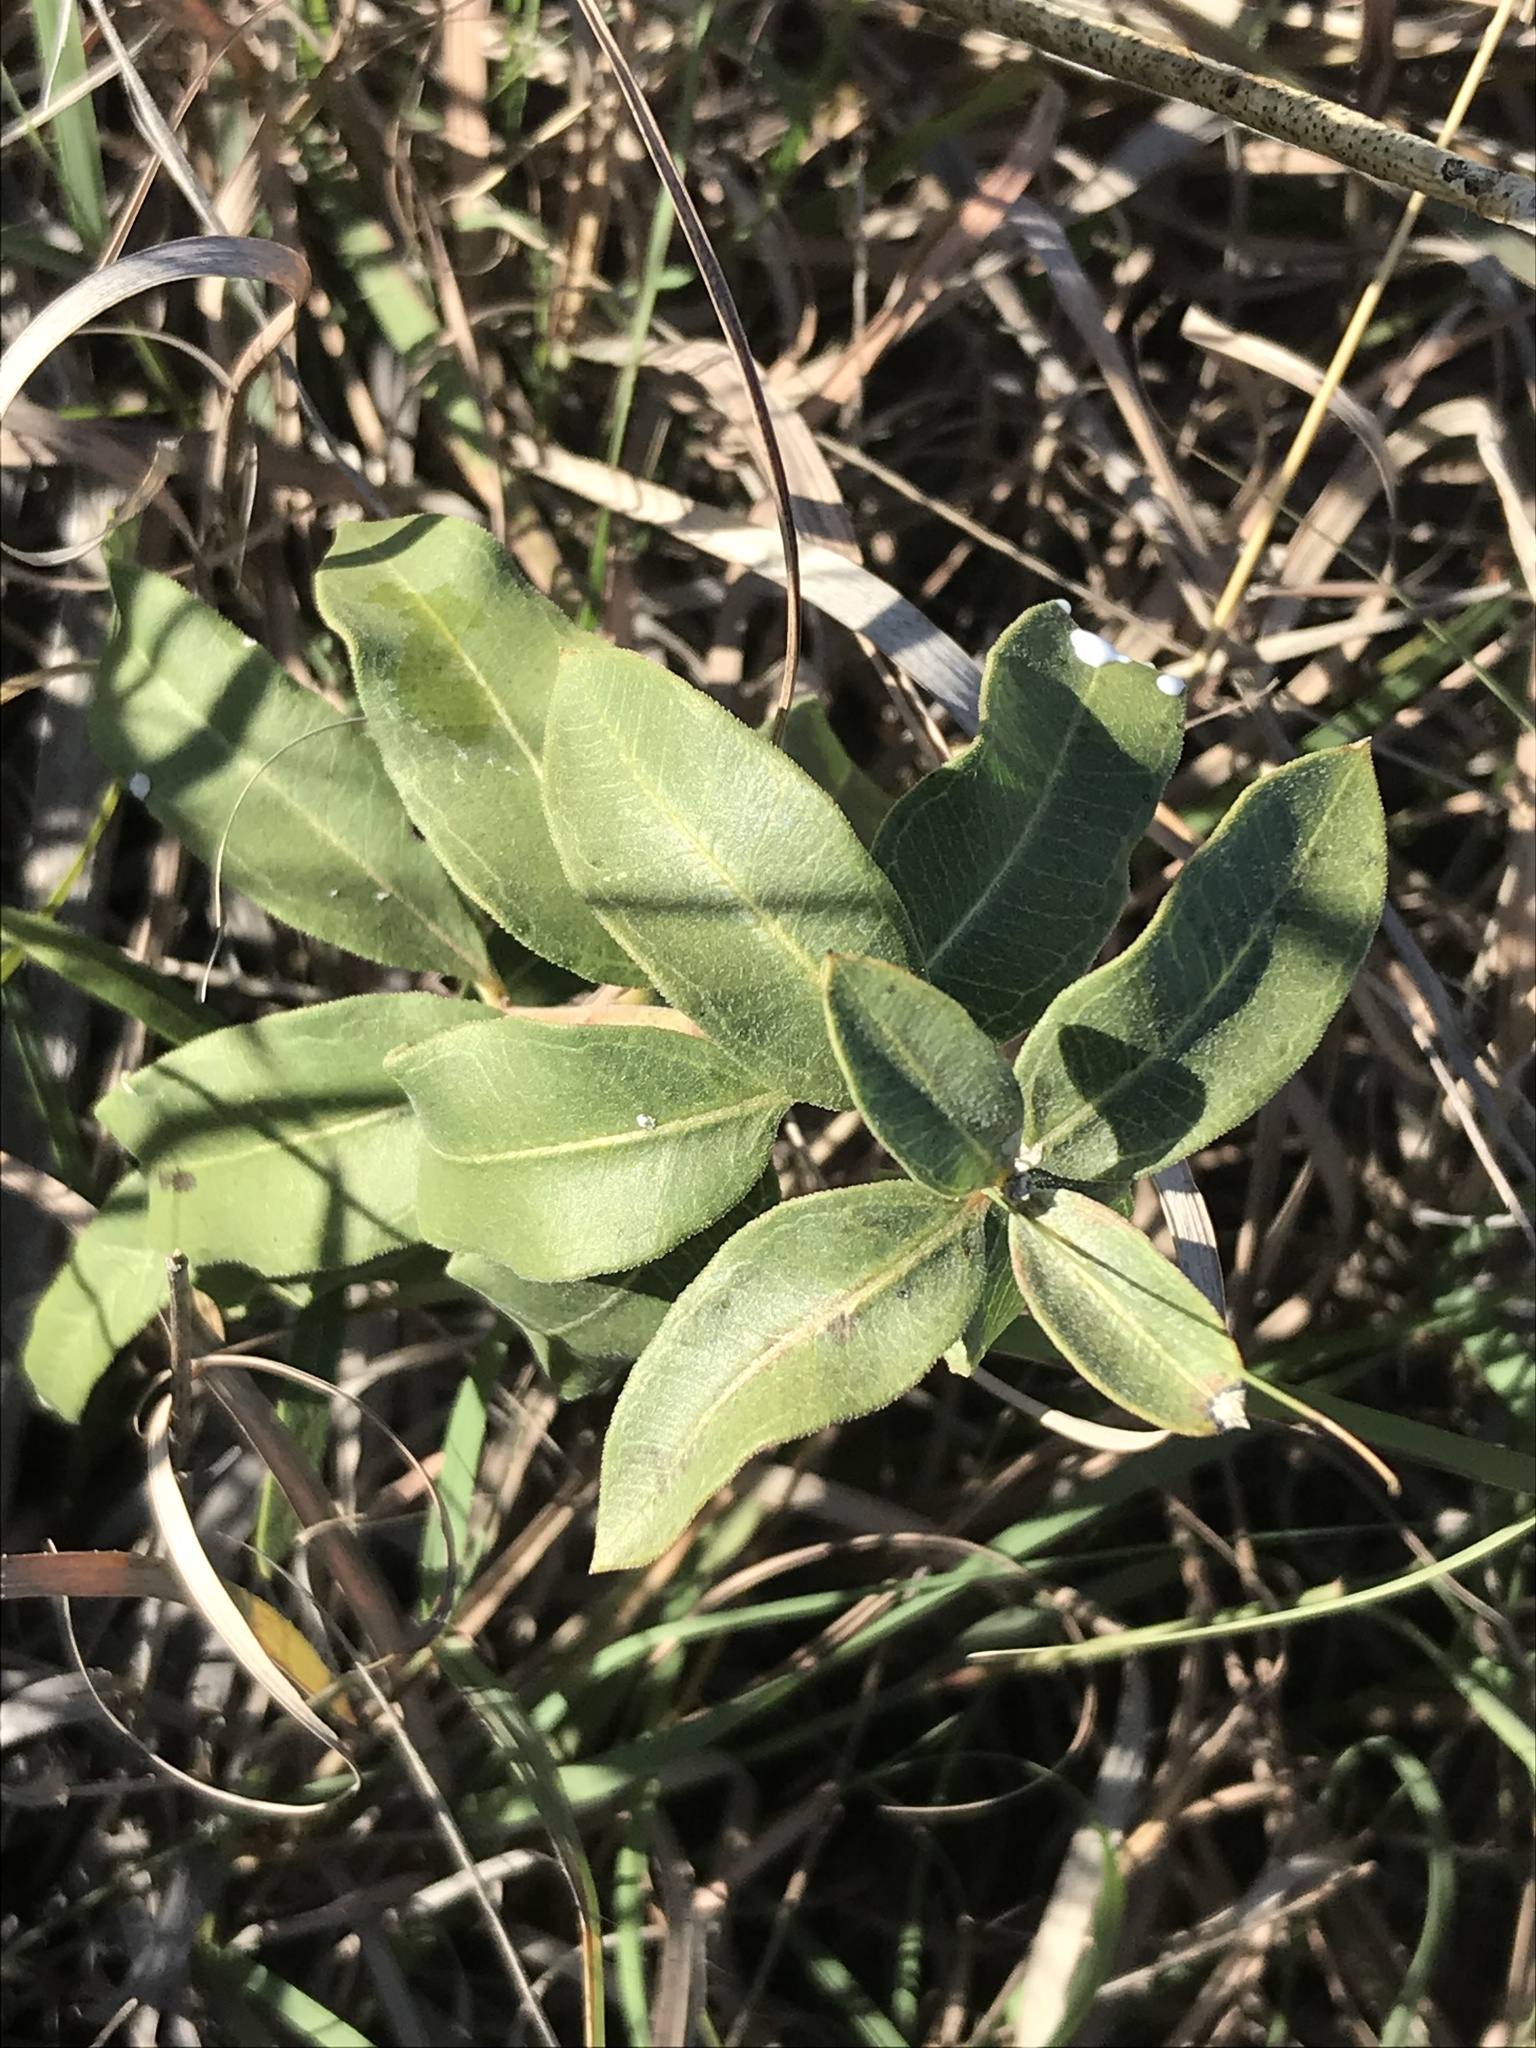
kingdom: Plantae
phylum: Tracheophyta
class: Magnoliopsida
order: Gentianales
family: Apocynaceae
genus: Asclepias
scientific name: Asclepias viridiflora
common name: Green comet milkweed
